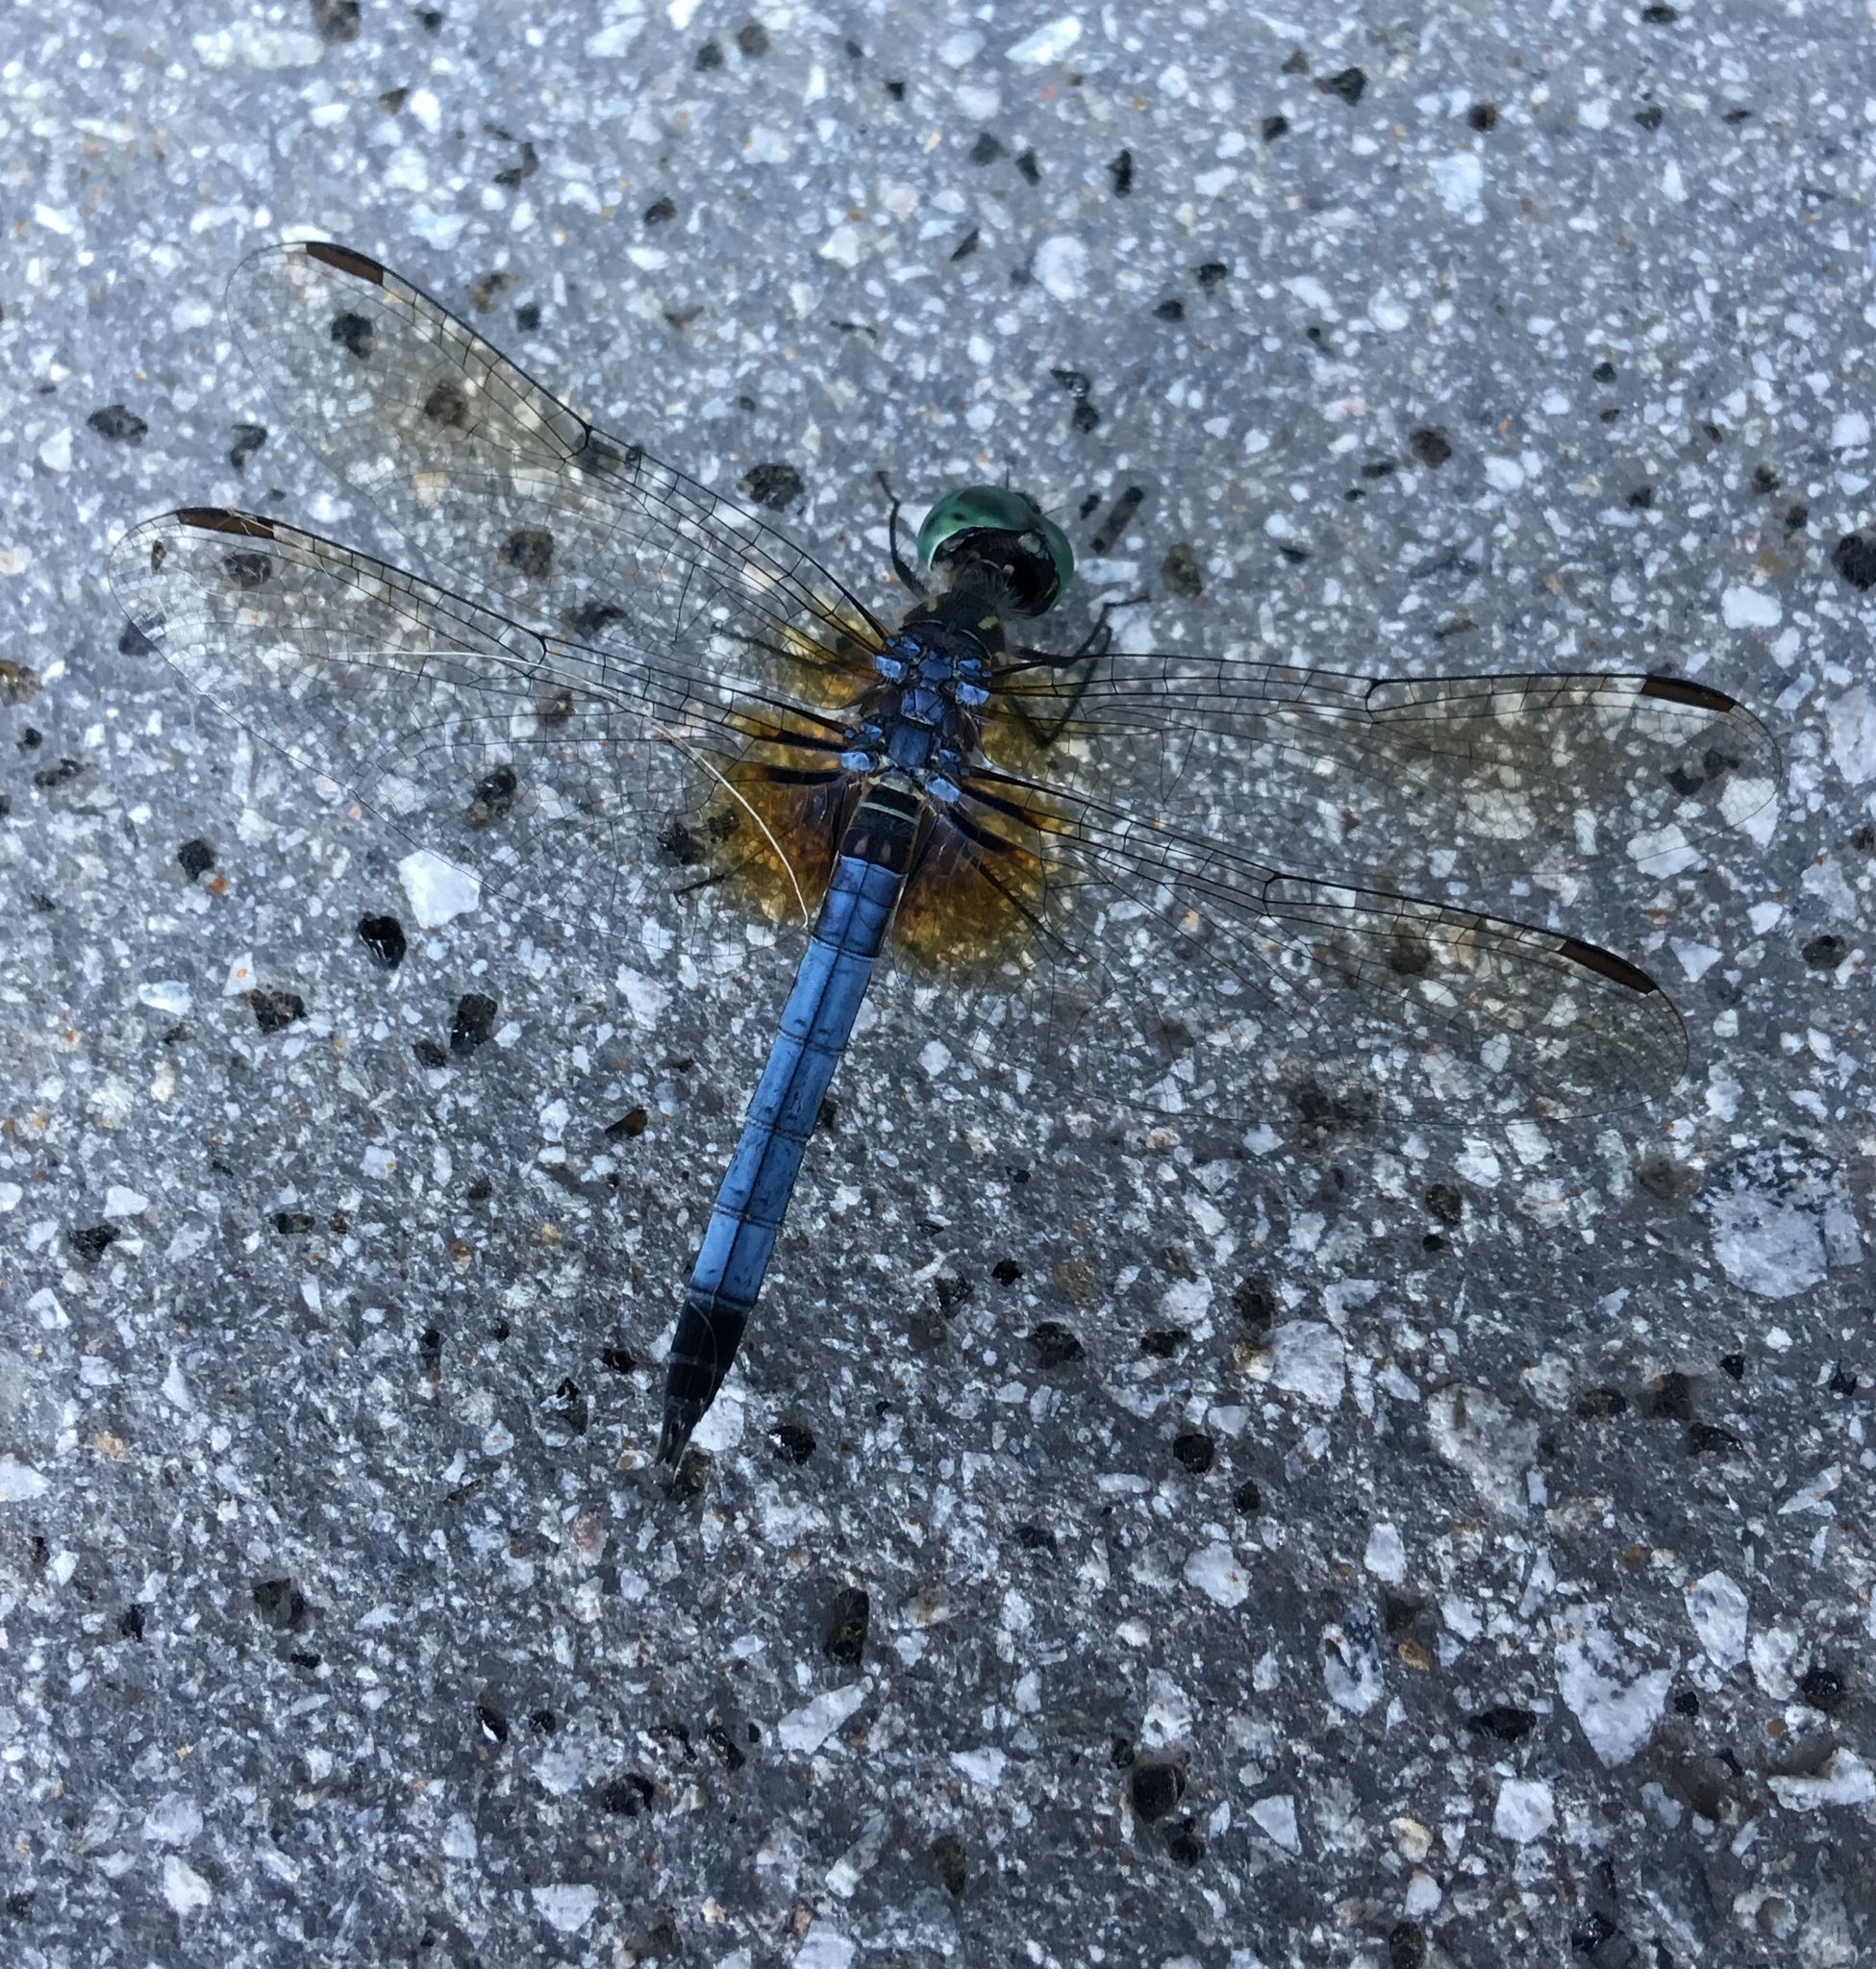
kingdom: Animalia
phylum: Arthropoda
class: Insecta
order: Odonata
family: Libellulidae
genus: Pachydiplax
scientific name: Pachydiplax longipennis
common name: Blue dasher
